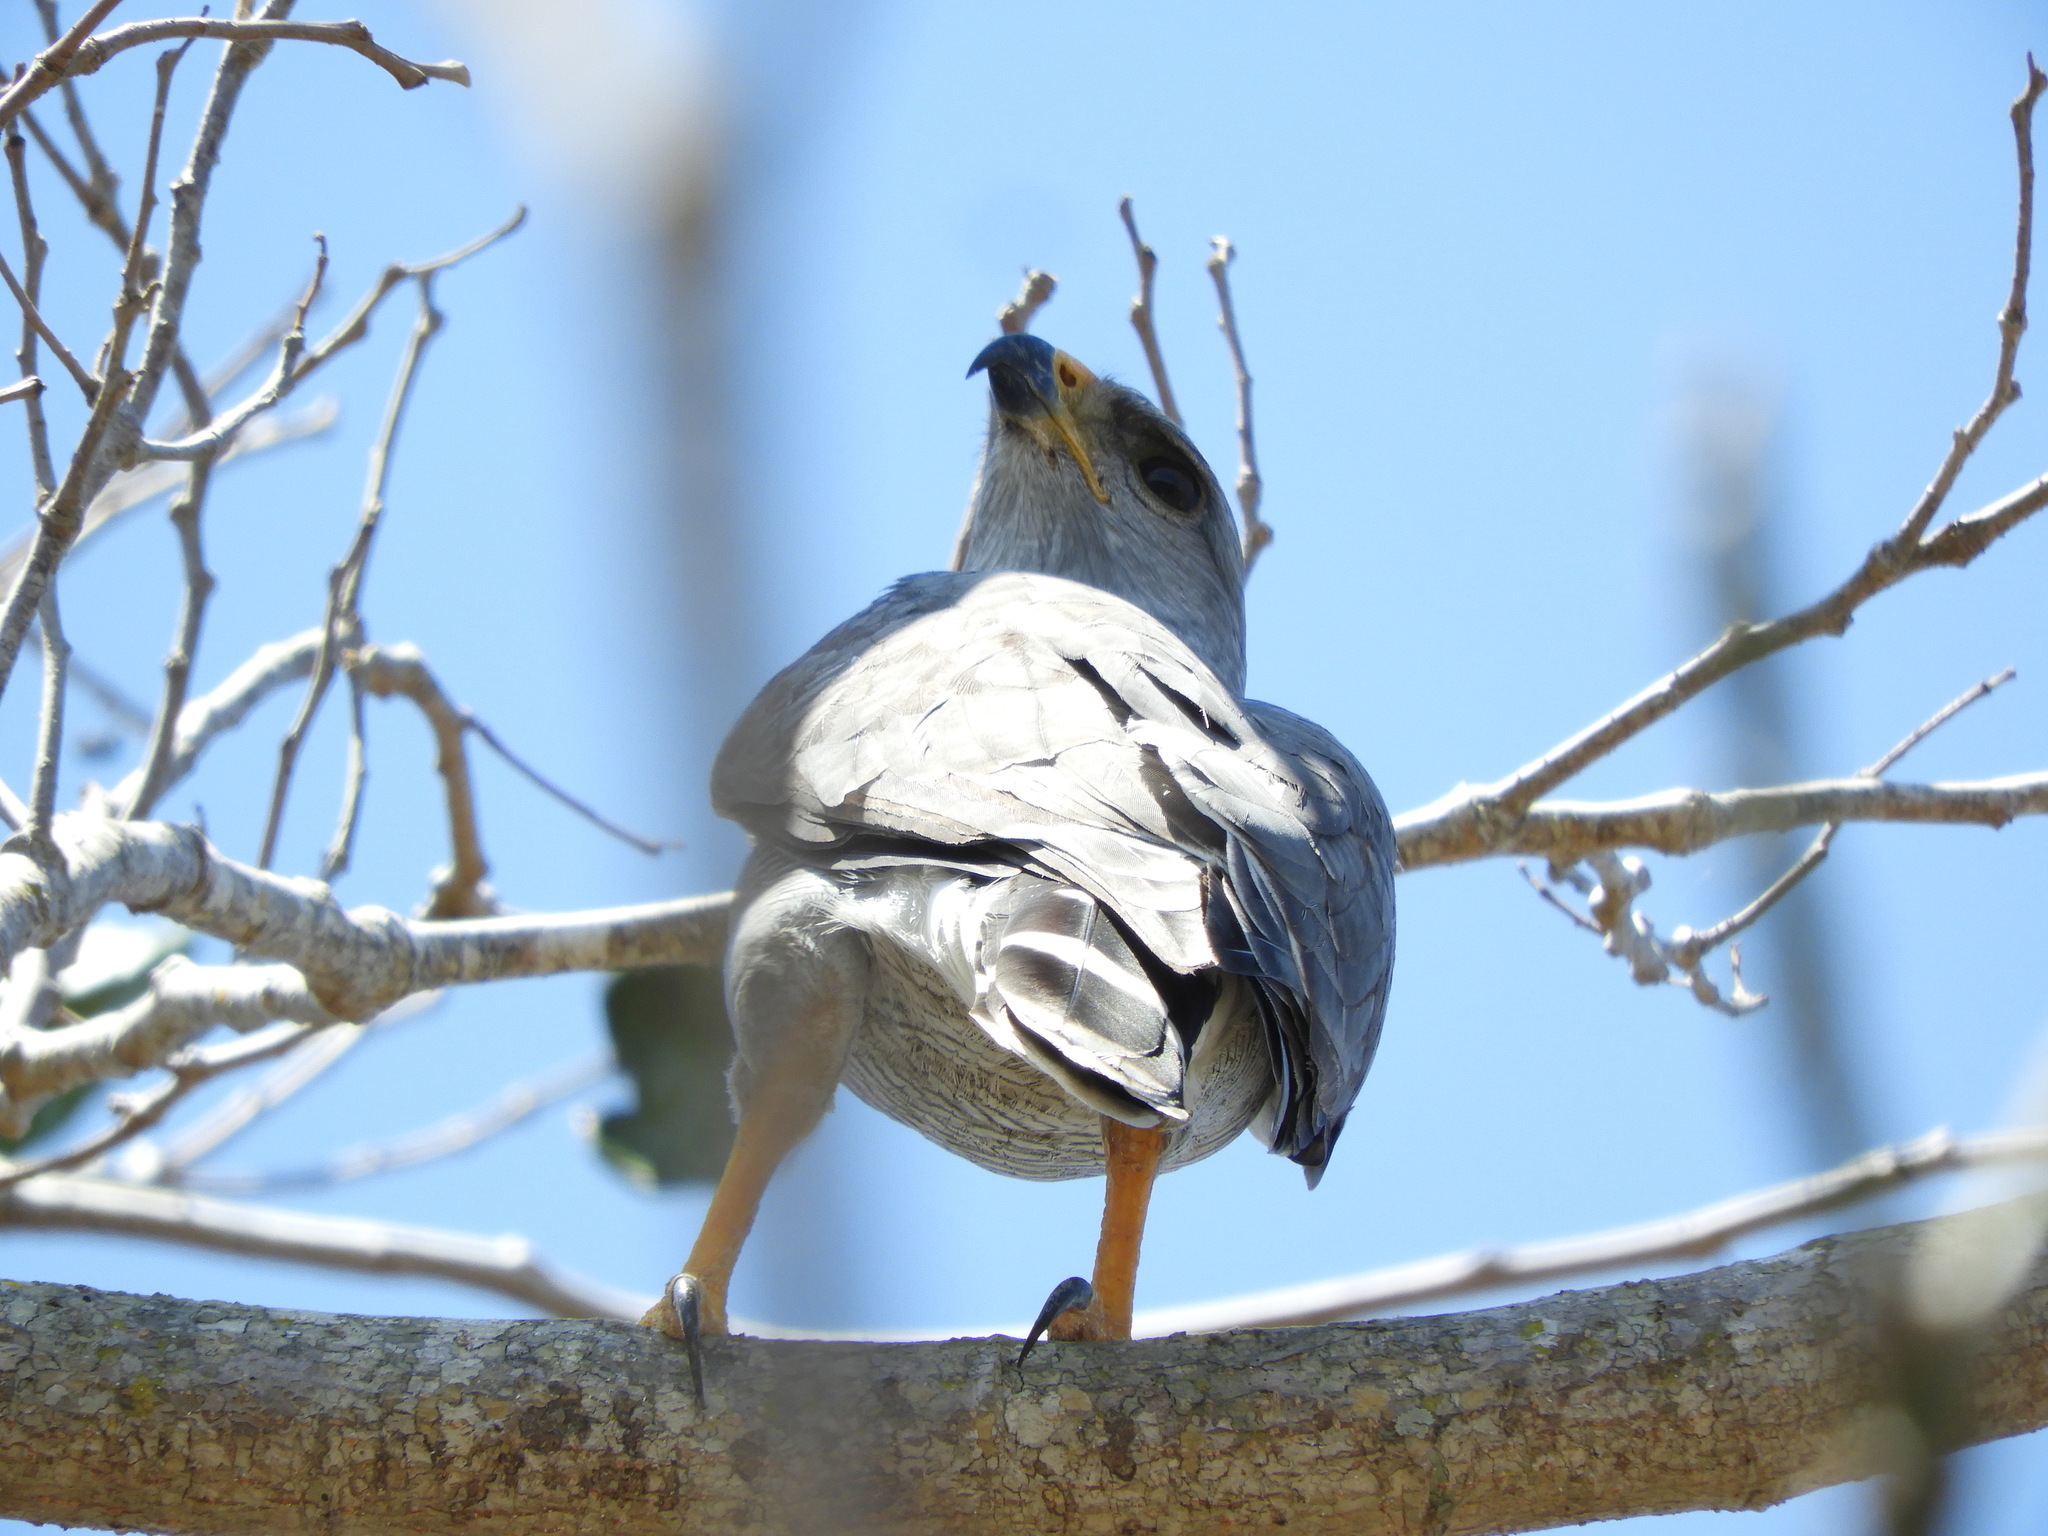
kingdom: Animalia
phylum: Chordata
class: Aves
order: Accipitriformes
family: Accipitridae
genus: Buteo
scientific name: Buteo nitidus
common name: Grey-lined hawk
